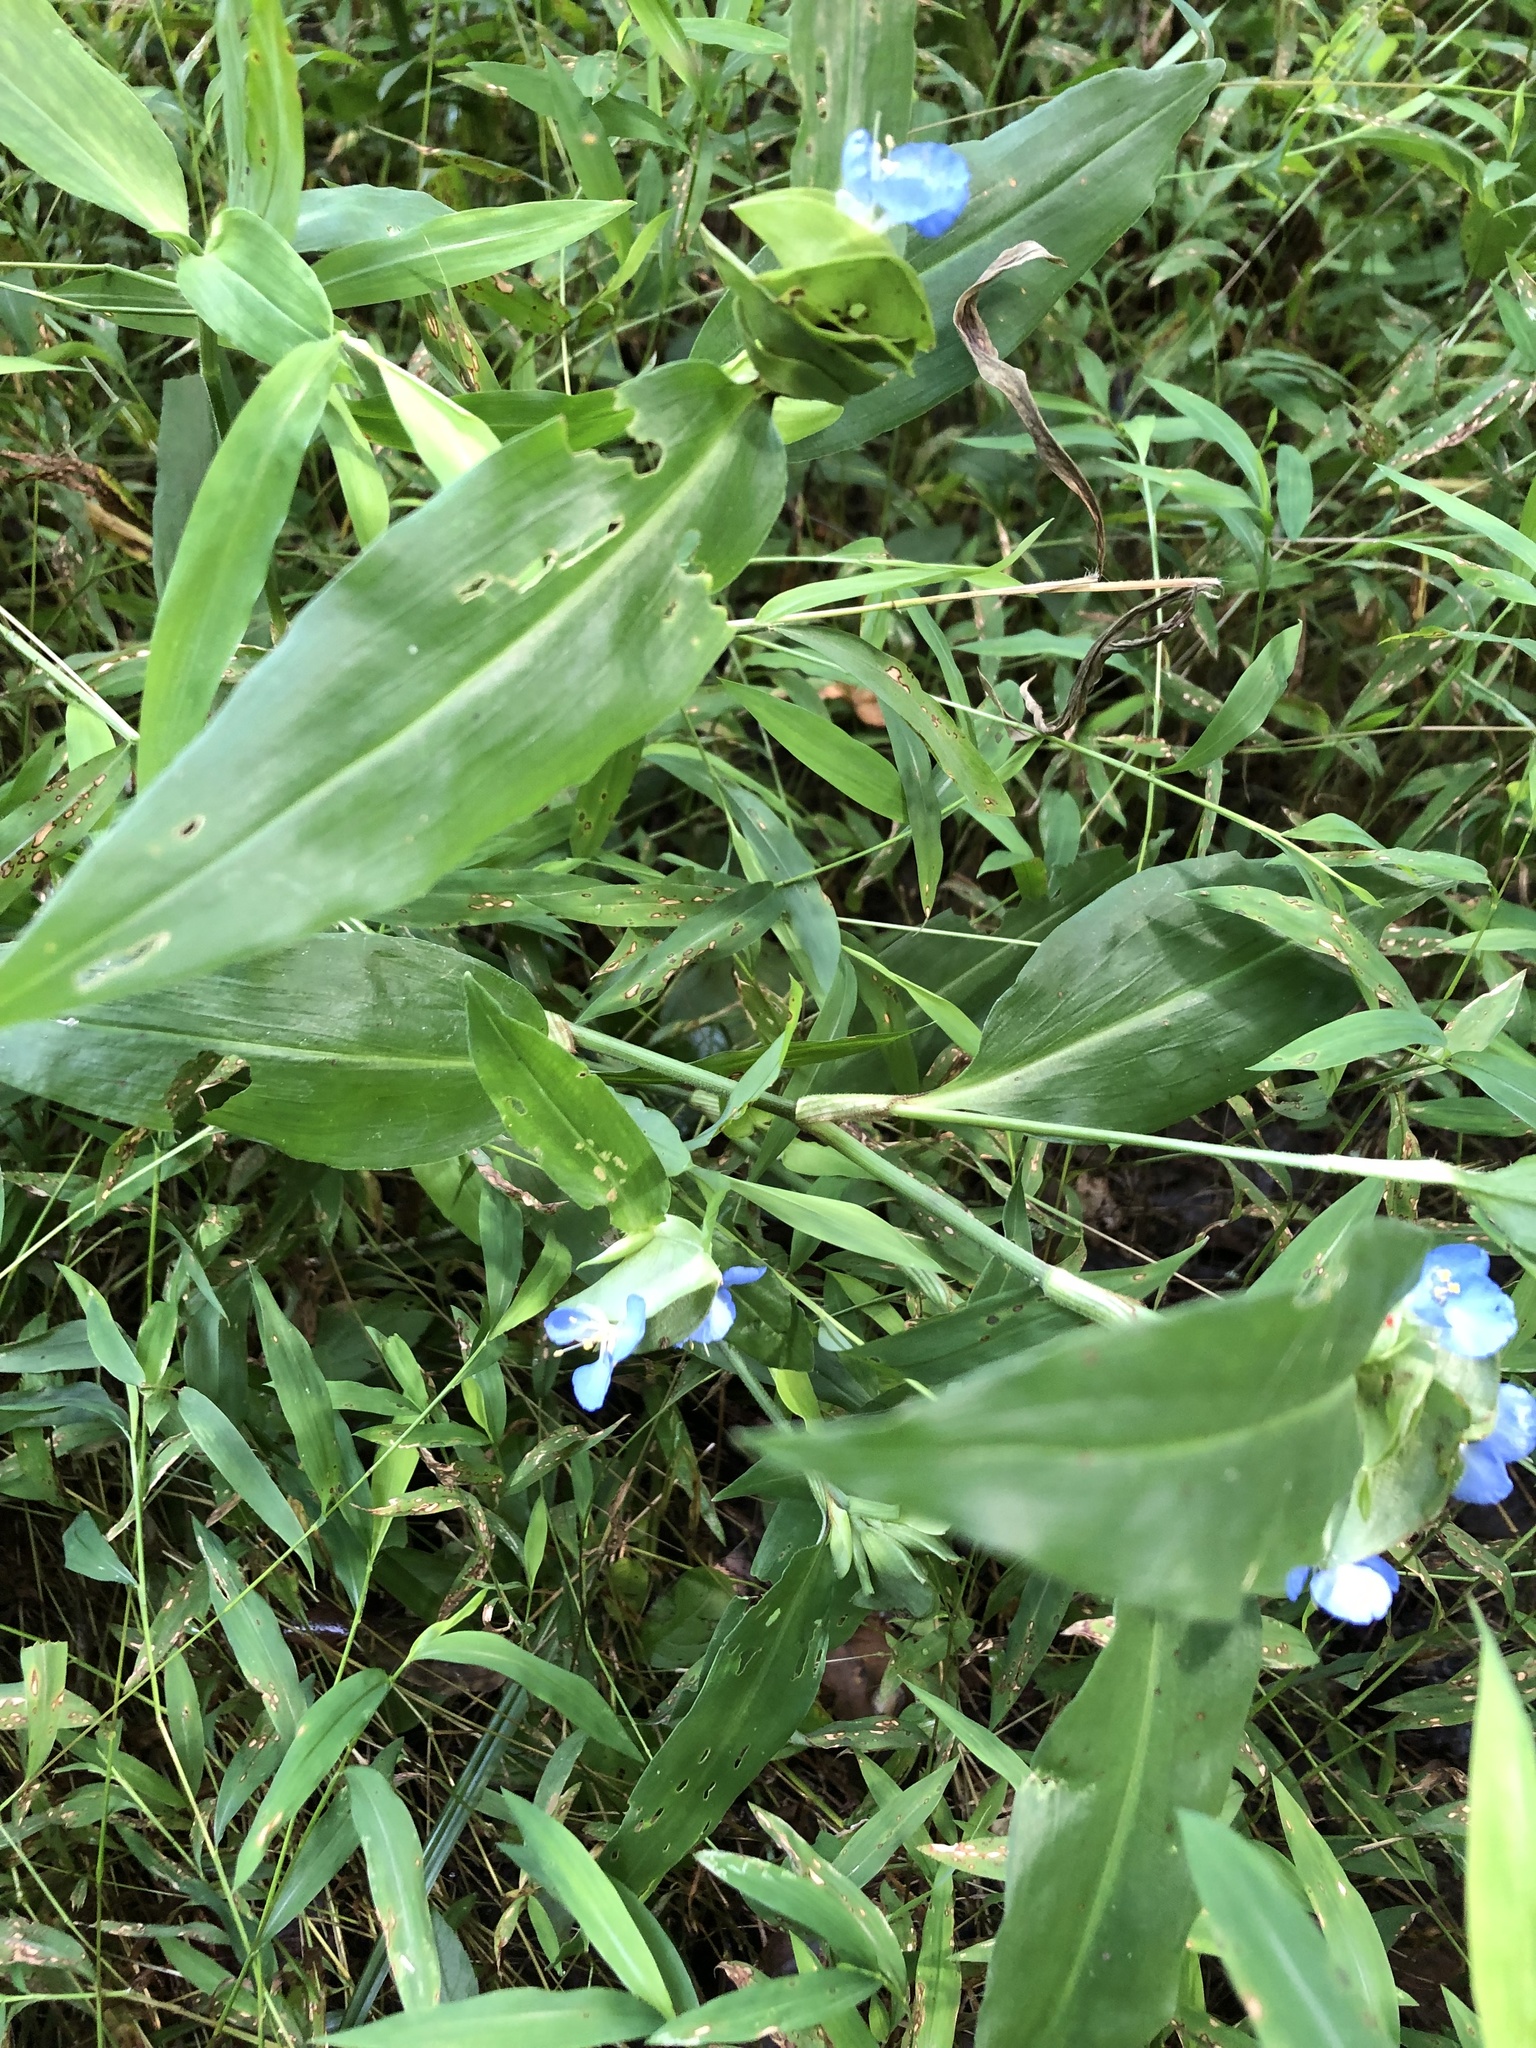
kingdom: Plantae
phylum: Tracheophyta
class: Liliopsida
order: Commelinales
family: Commelinaceae
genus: Commelina
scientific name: Commelina virginica
